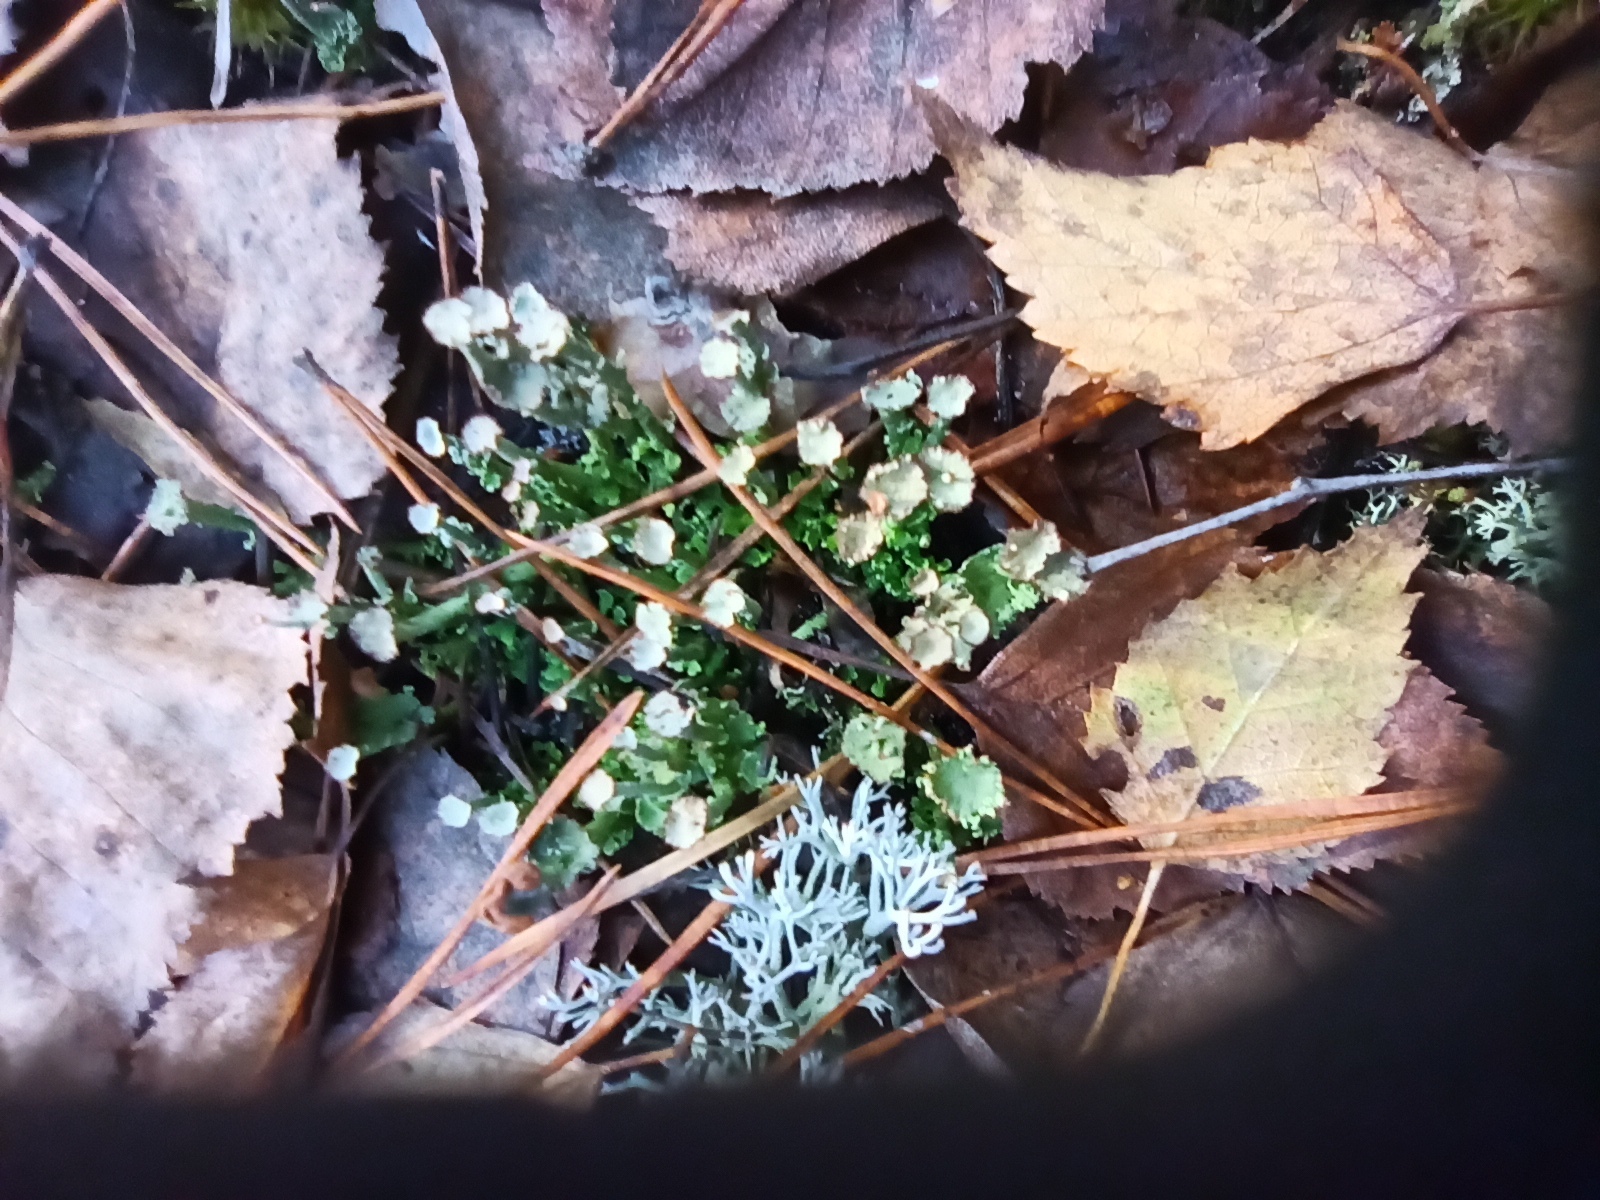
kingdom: Fungi
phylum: Ascomycota
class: Lecanoromycetes
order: Lecanorales
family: Cladoniaceae
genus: Cladonia
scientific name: Cladonia gracilis
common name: Smooth clad lichen
